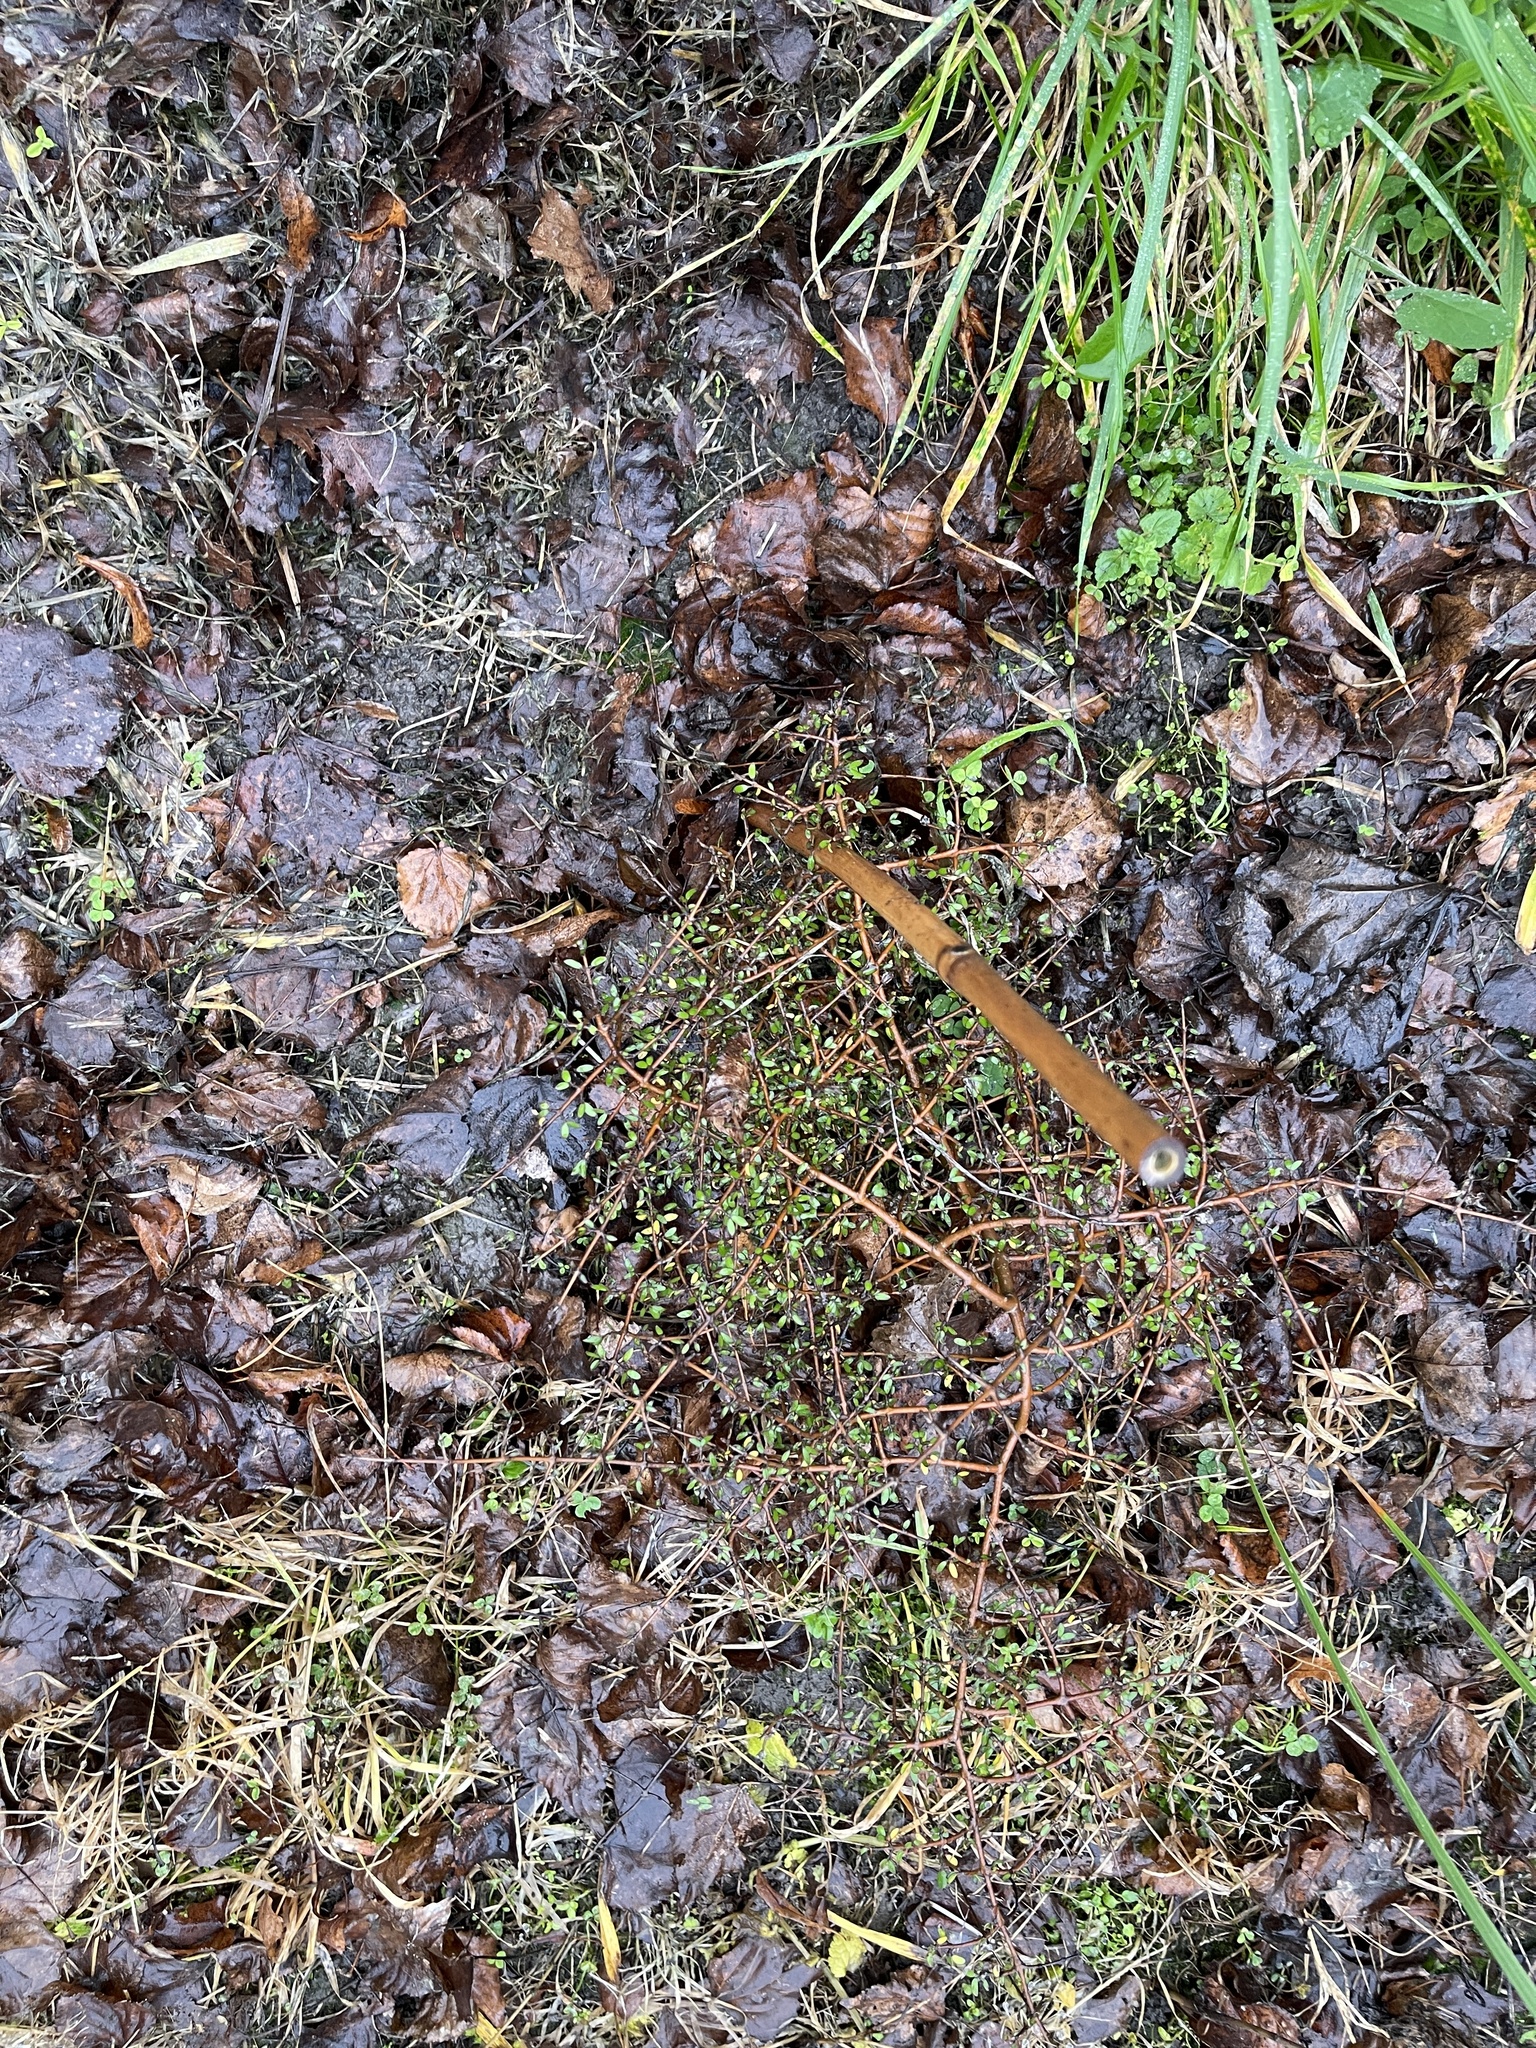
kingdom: Plantae
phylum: Tracheophyta
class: Magnoliopsida
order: Gentianales
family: Rubiaceae
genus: Coprosma
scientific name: Coprosma propinqua
